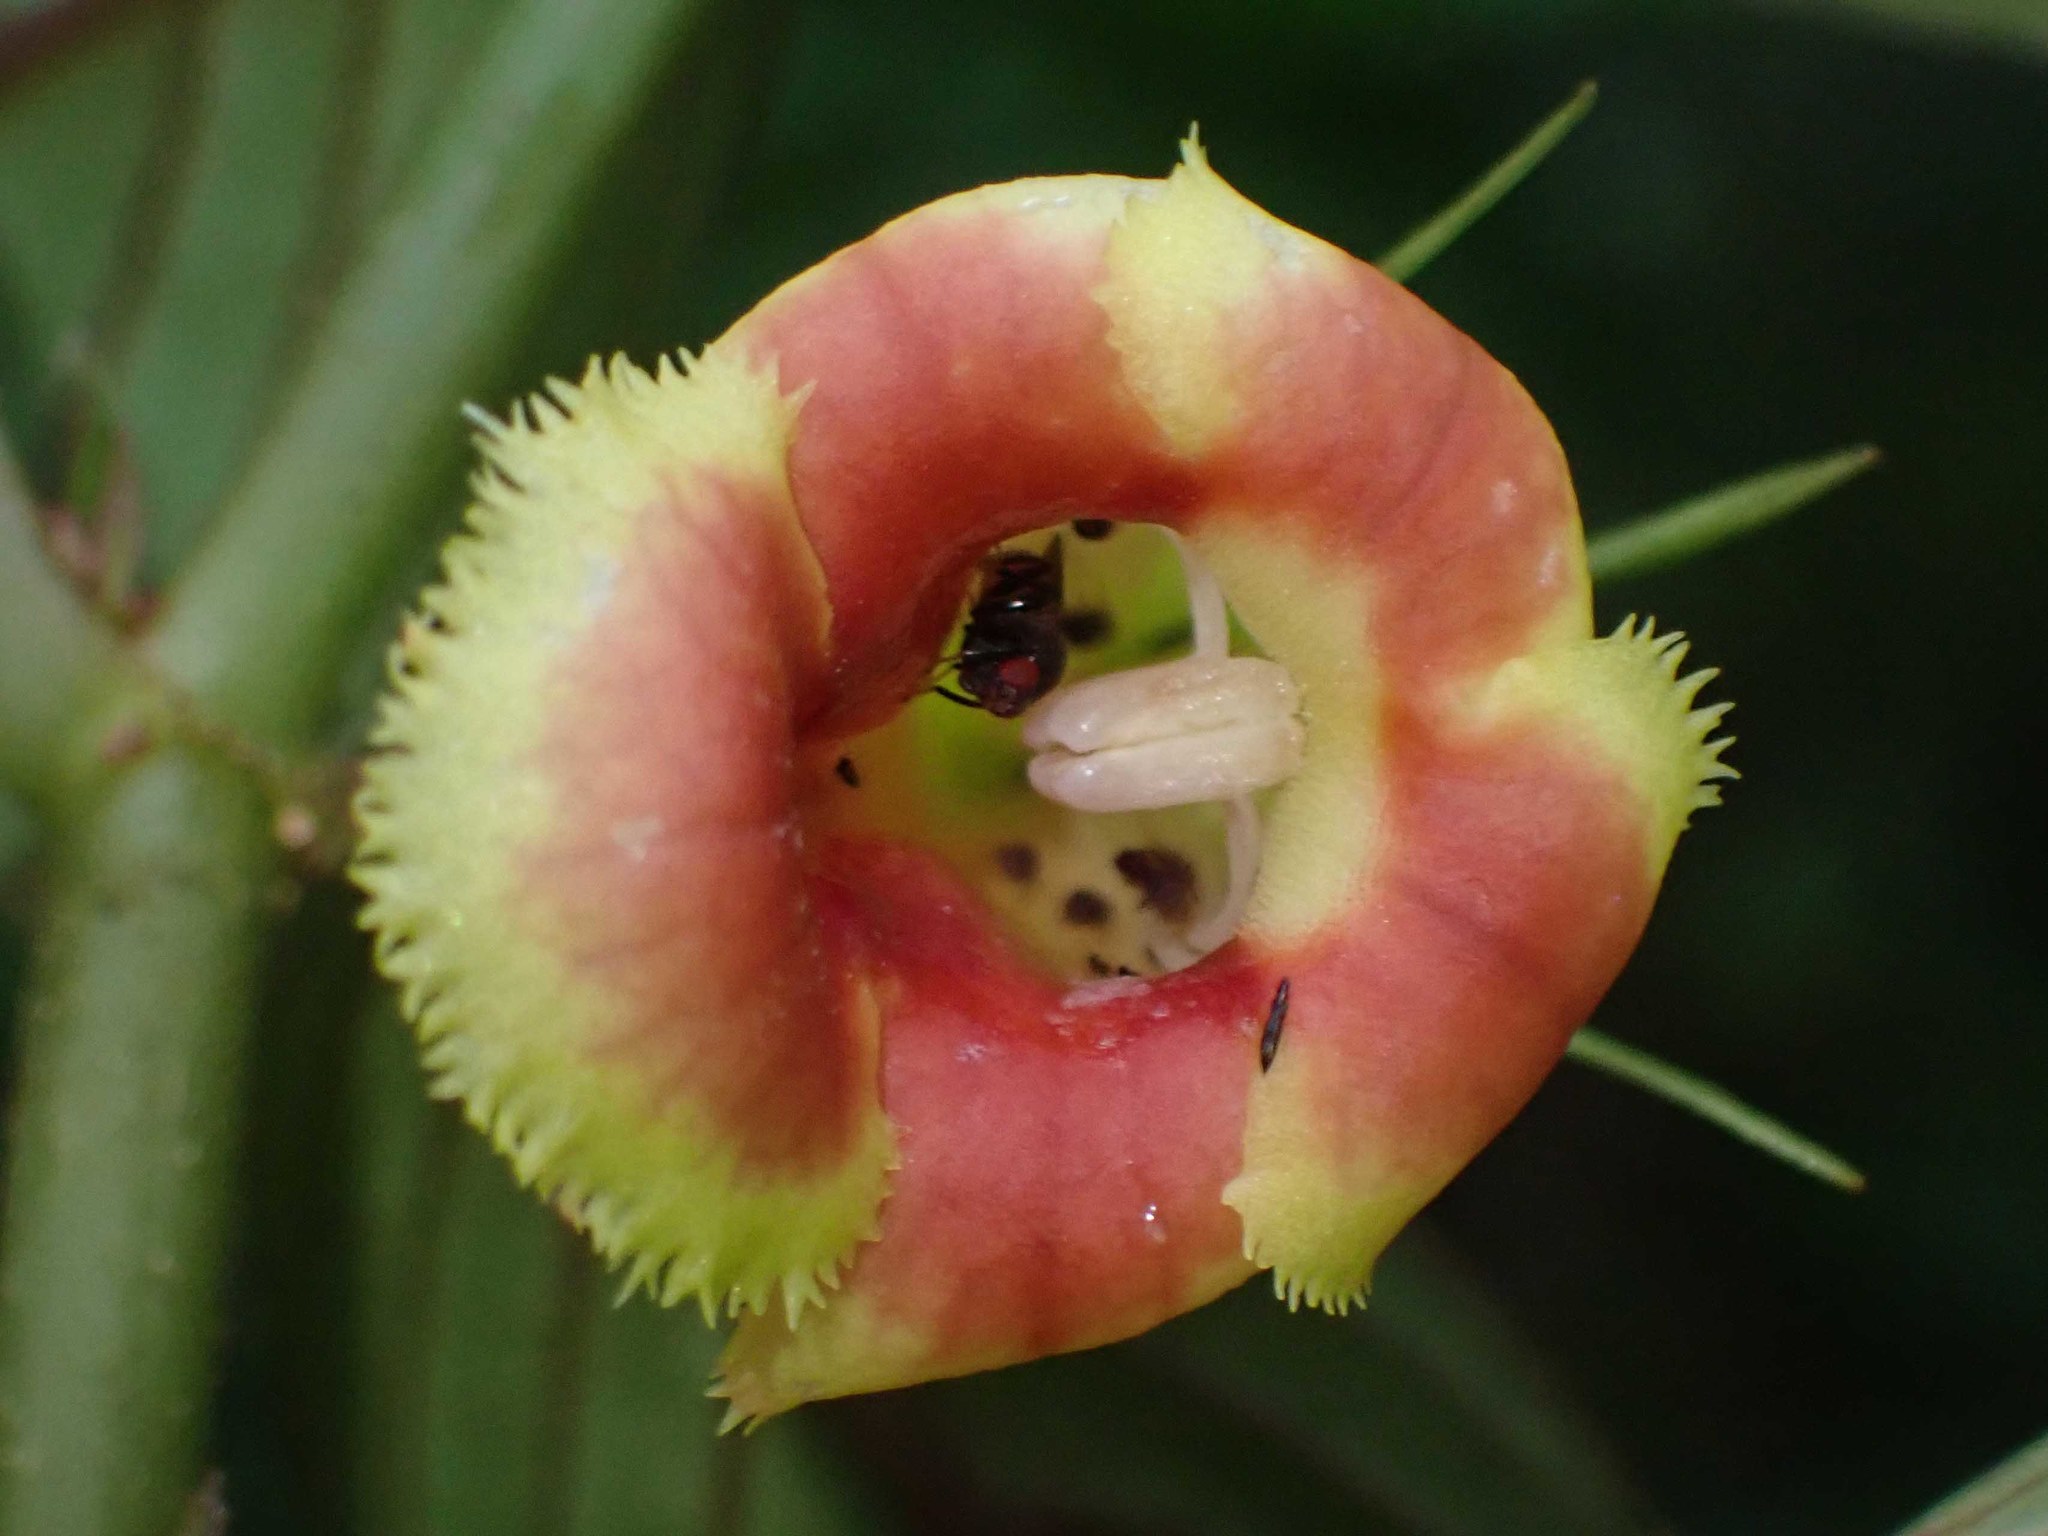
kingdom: Plantae
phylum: Tracheophyta
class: Magnoliopsida
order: Lamiales
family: Gesneriaceae
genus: Drymonia
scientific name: Drymonia warszewicziana
